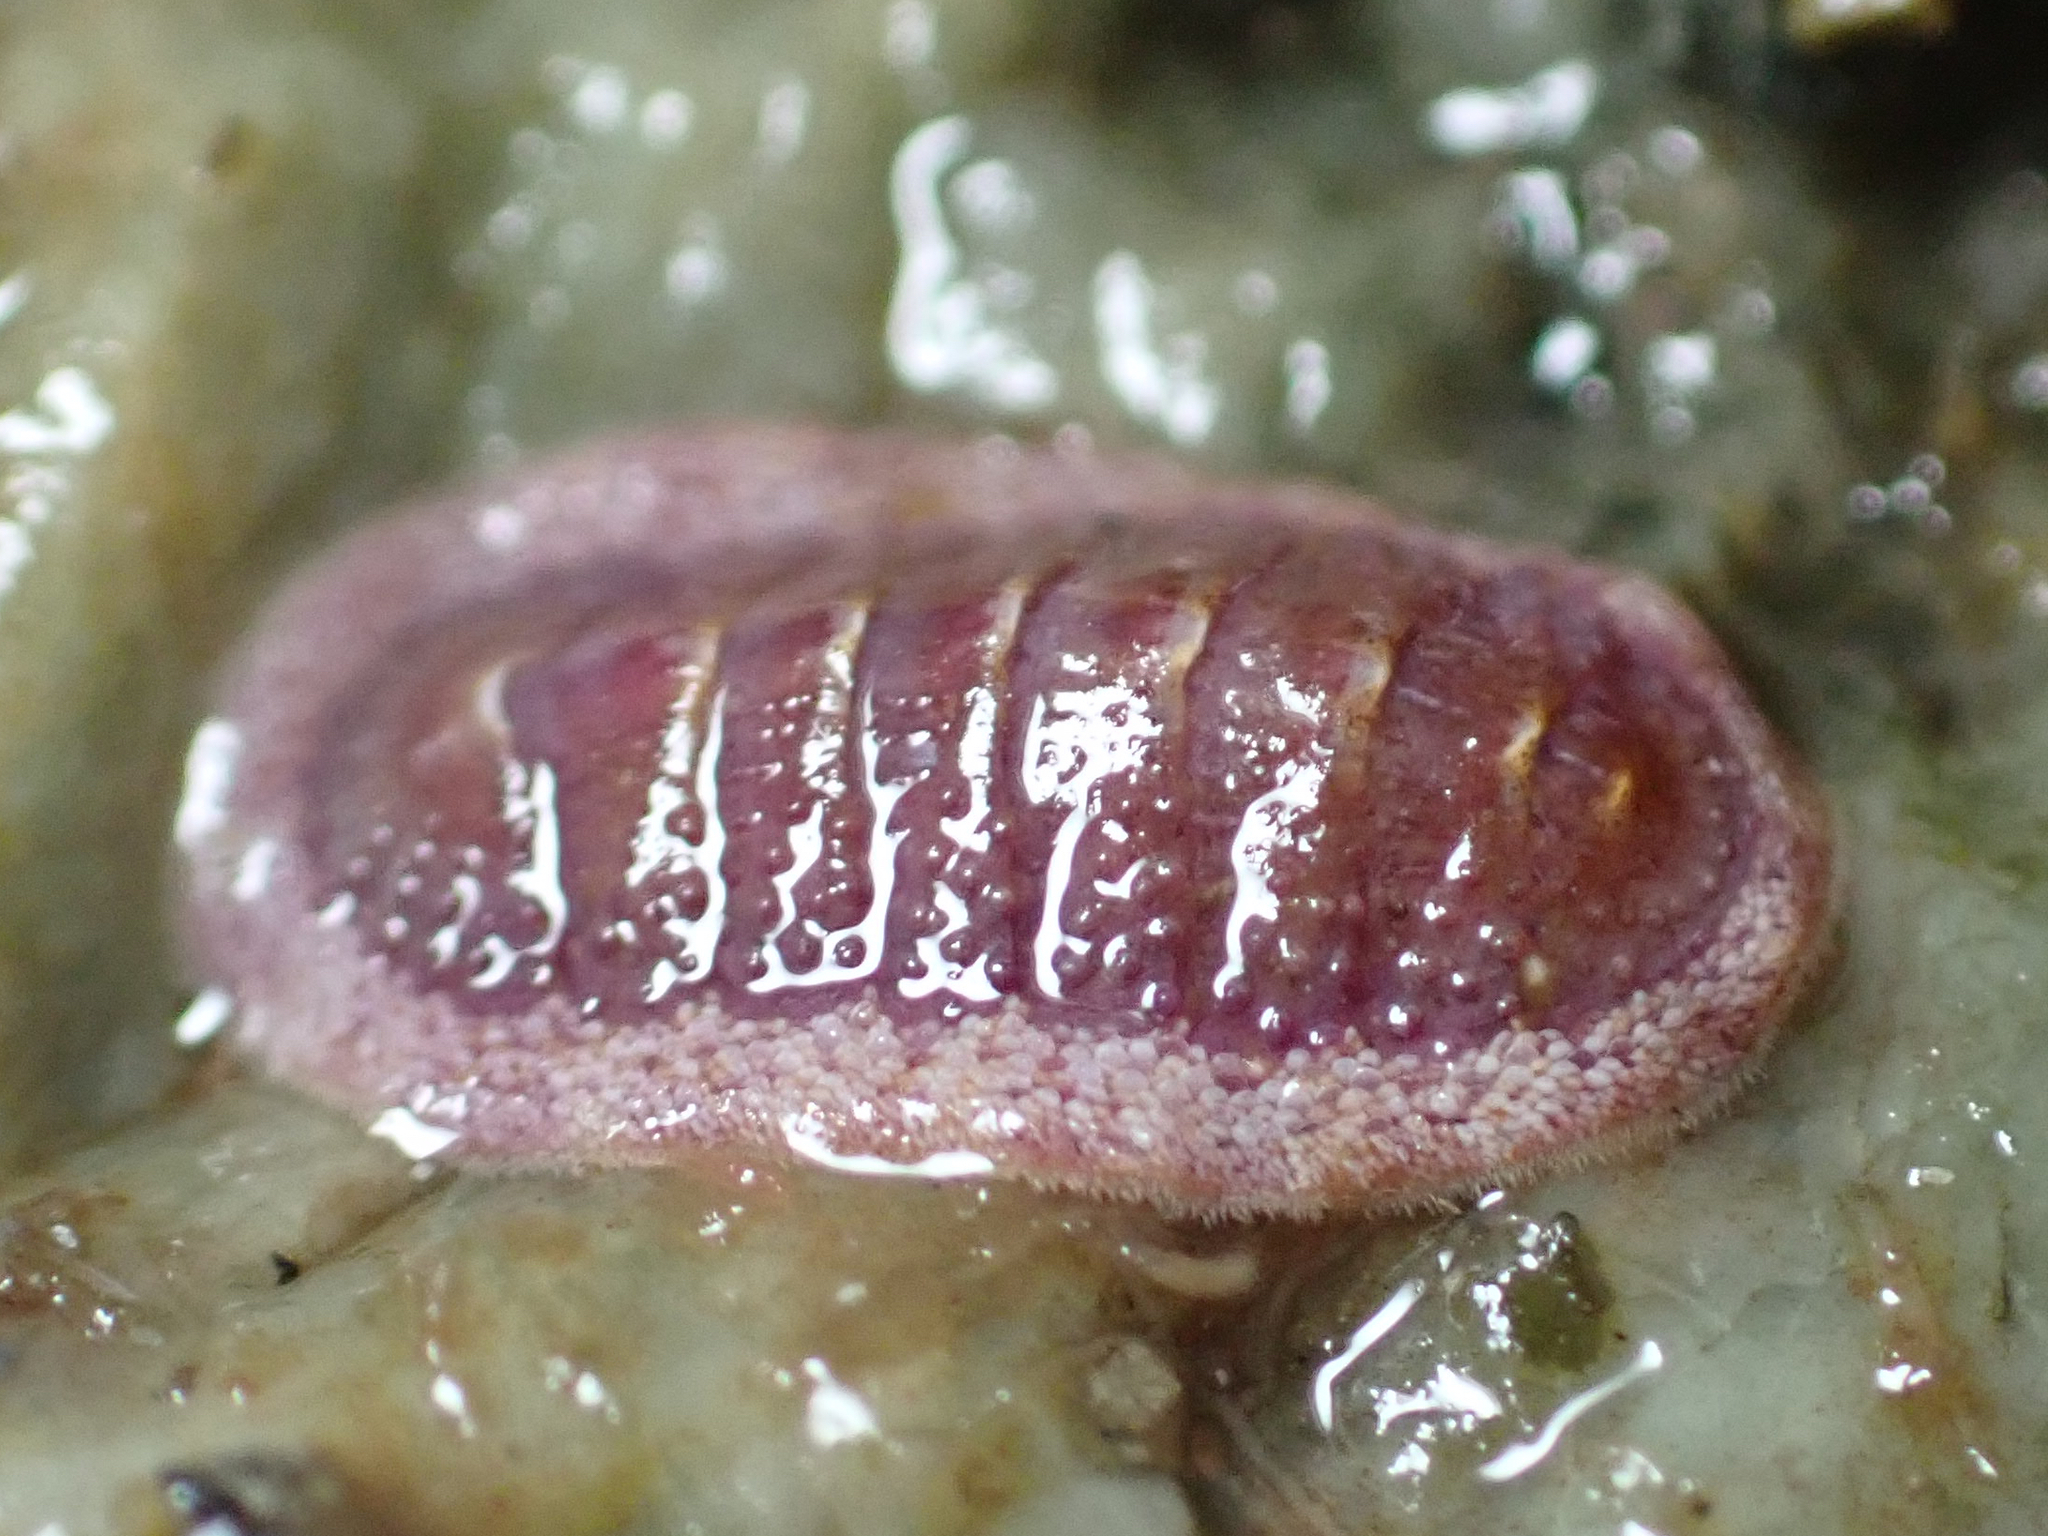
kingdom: Animalia
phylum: Mollusca
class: Polyplacophora
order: Chitonida
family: Ischnochitonidae
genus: Lepidozona
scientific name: Lepidozona mertensii
